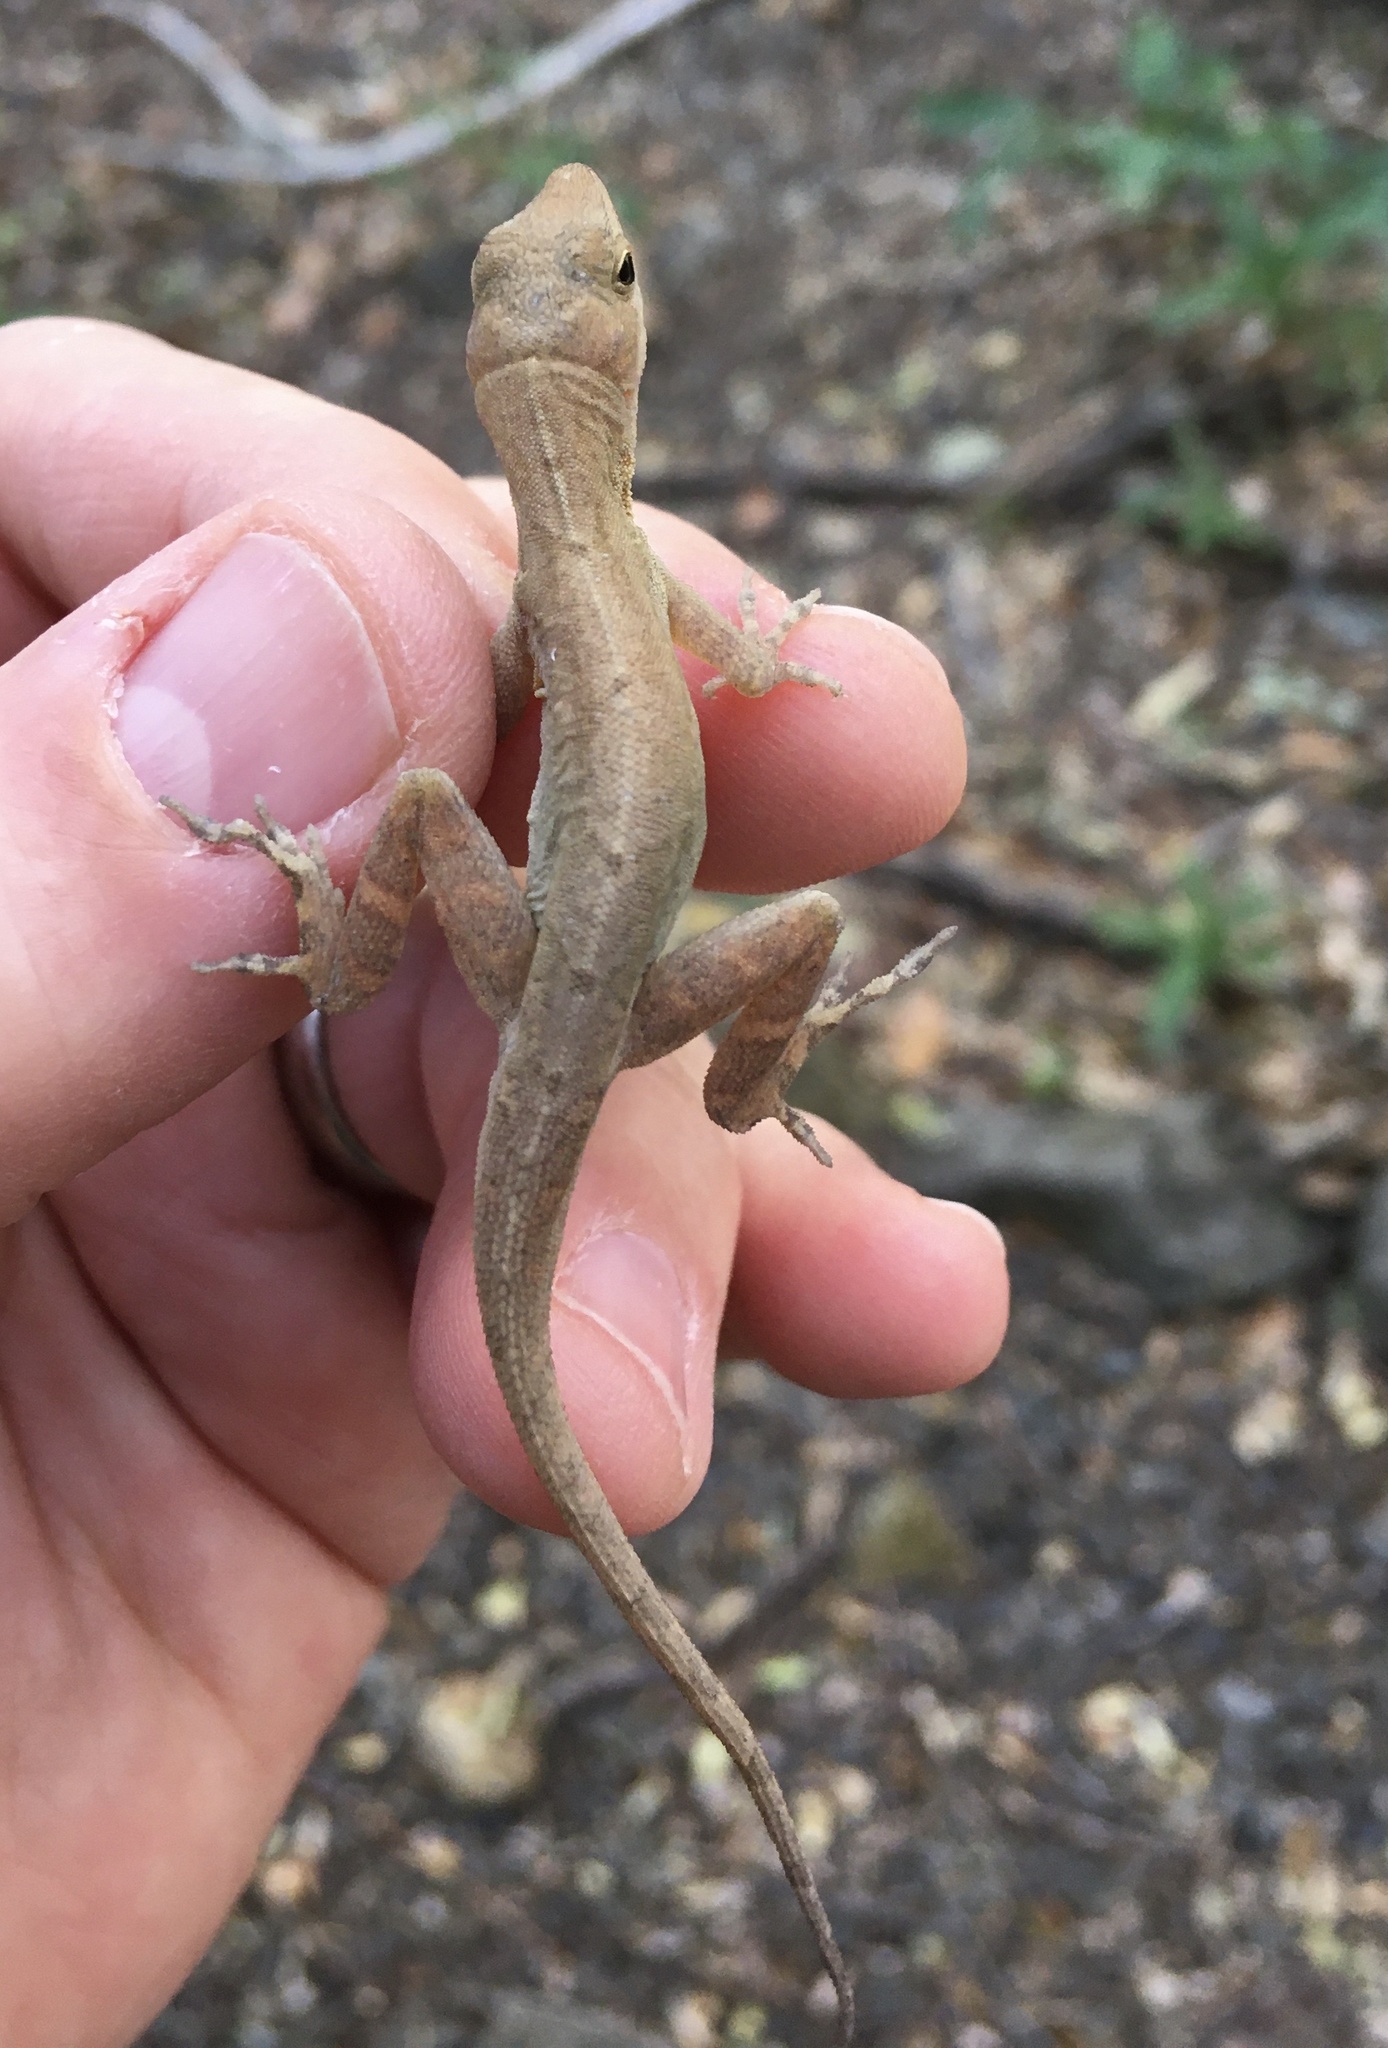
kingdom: Animalia
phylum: Chordata
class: Squamata
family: Dactyloidae
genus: Anolis
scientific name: Anolis cupreus
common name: Copper anole
